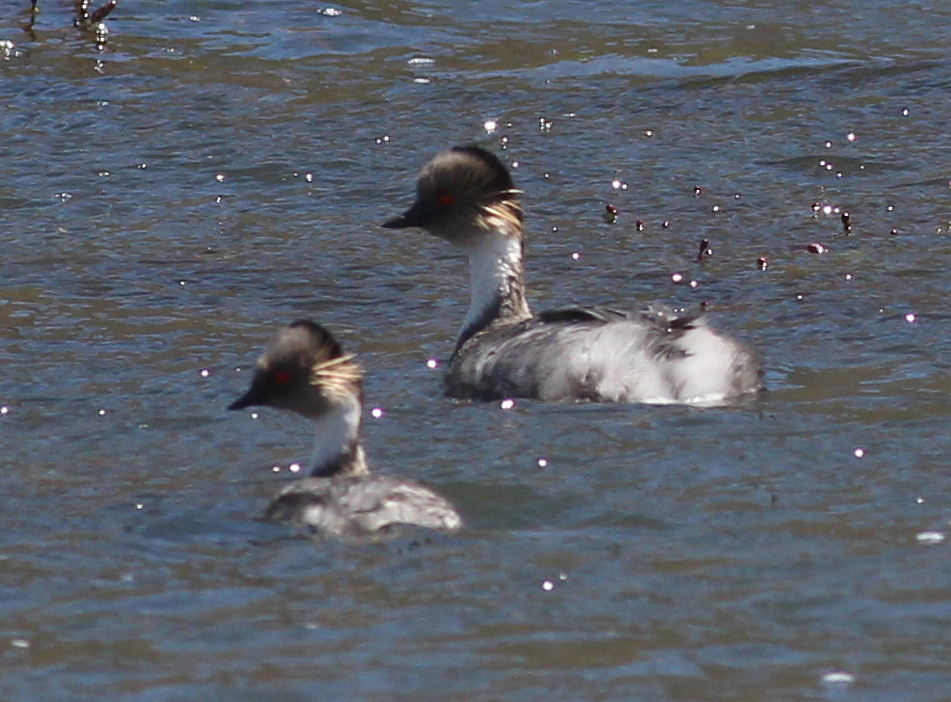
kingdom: Animalia
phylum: Chordata
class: Aves
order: Podicipediformes
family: Podicipedidae
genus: Podiceps
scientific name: Podiceps occipitalis
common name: Silvery grebe
